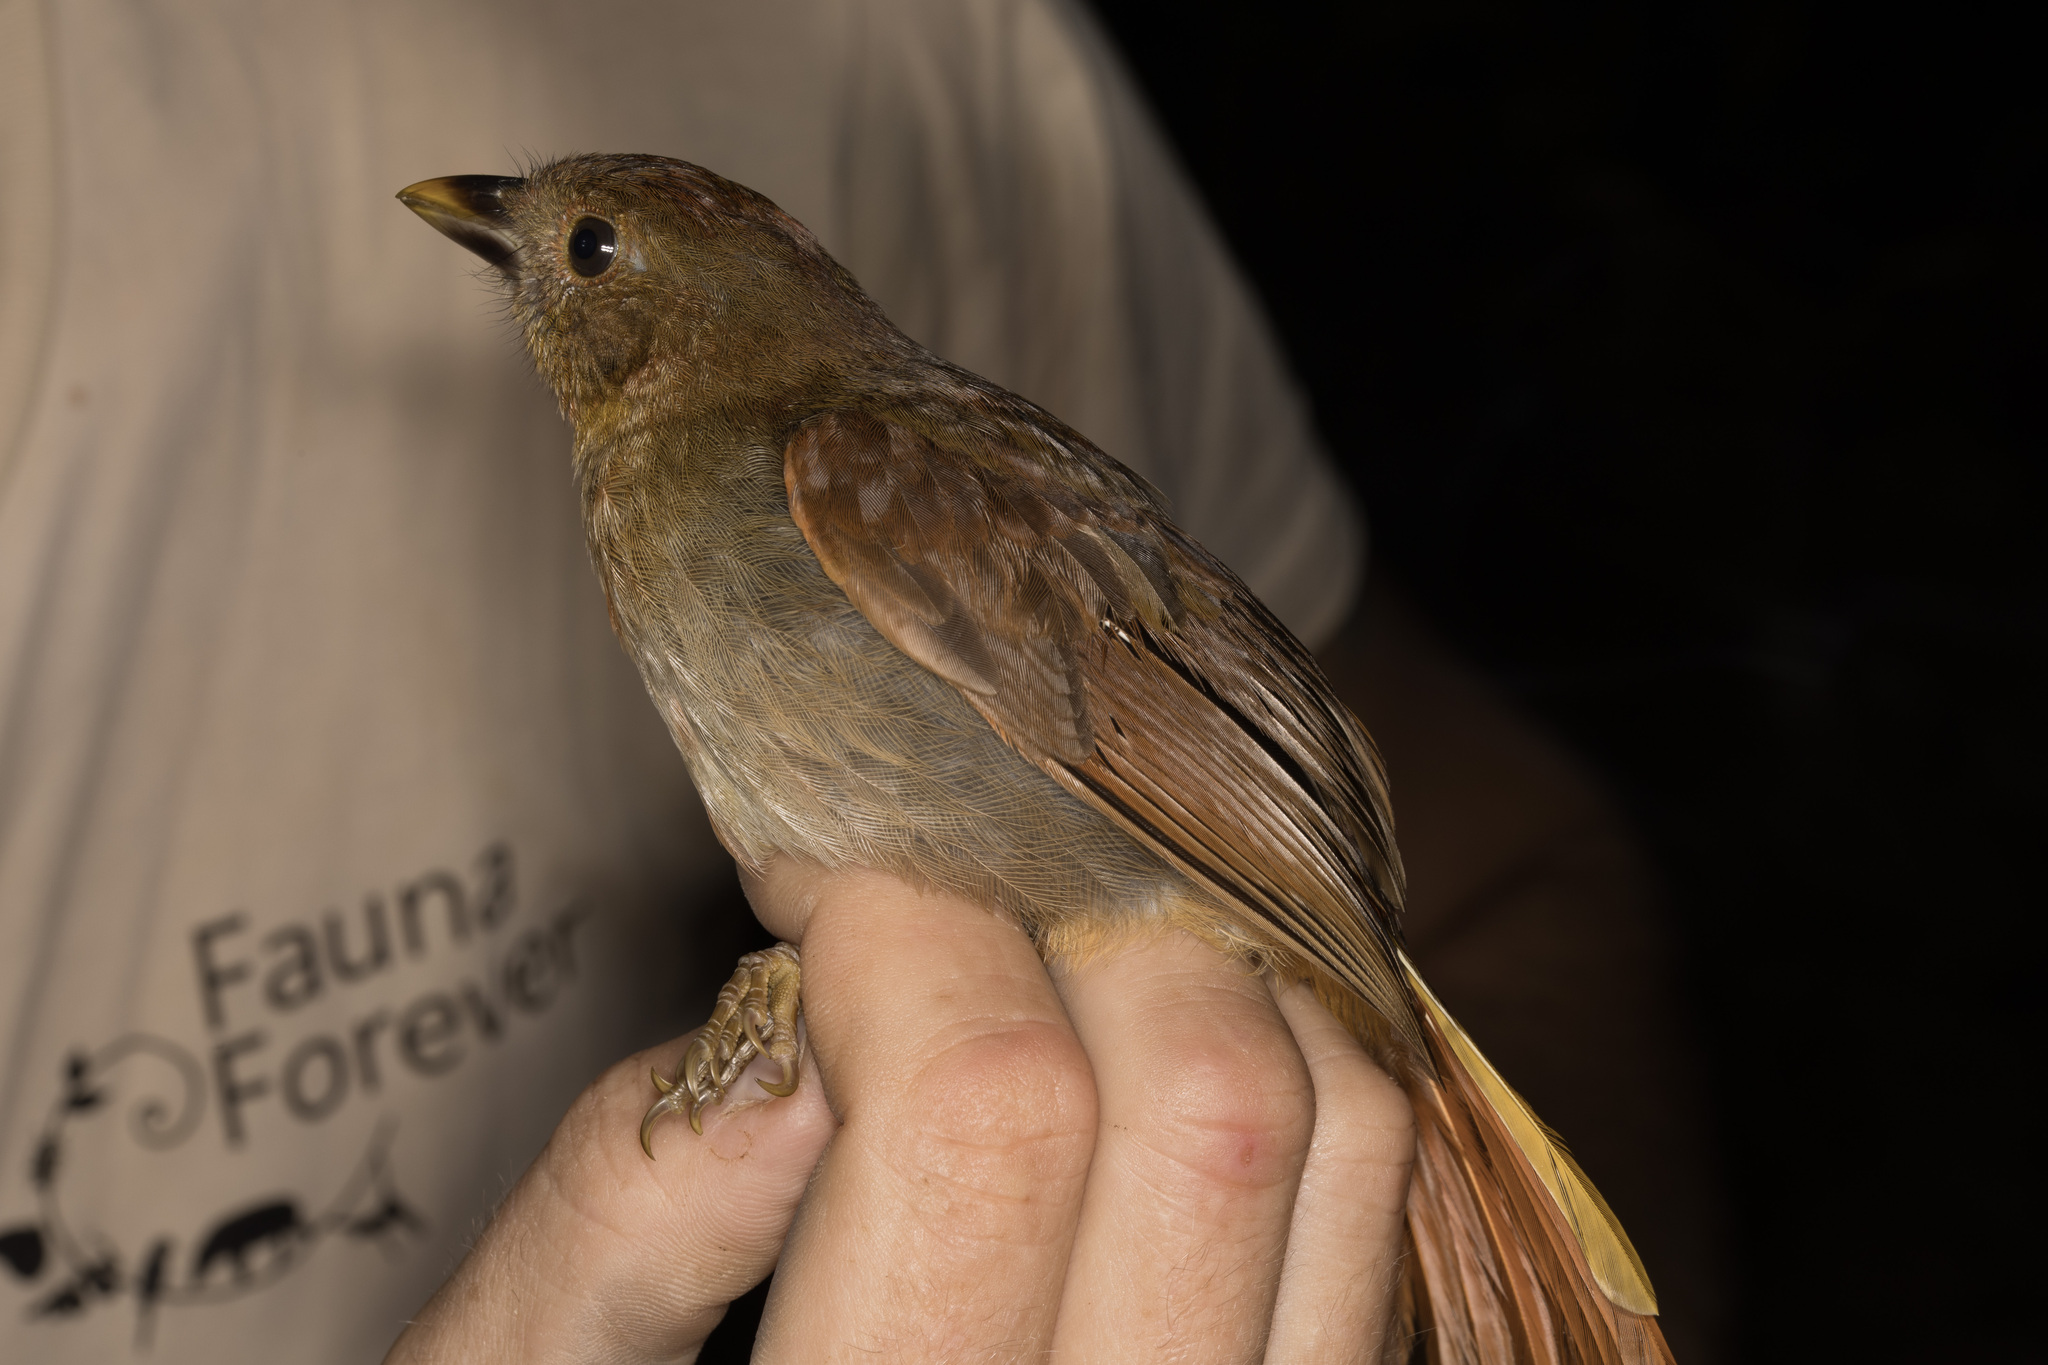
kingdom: Animalia
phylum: Chordata
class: Aves
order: Passeriformes
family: Cardinalidae
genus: Habia
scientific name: Habia rubica
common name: Red-crowned ant-tanager
